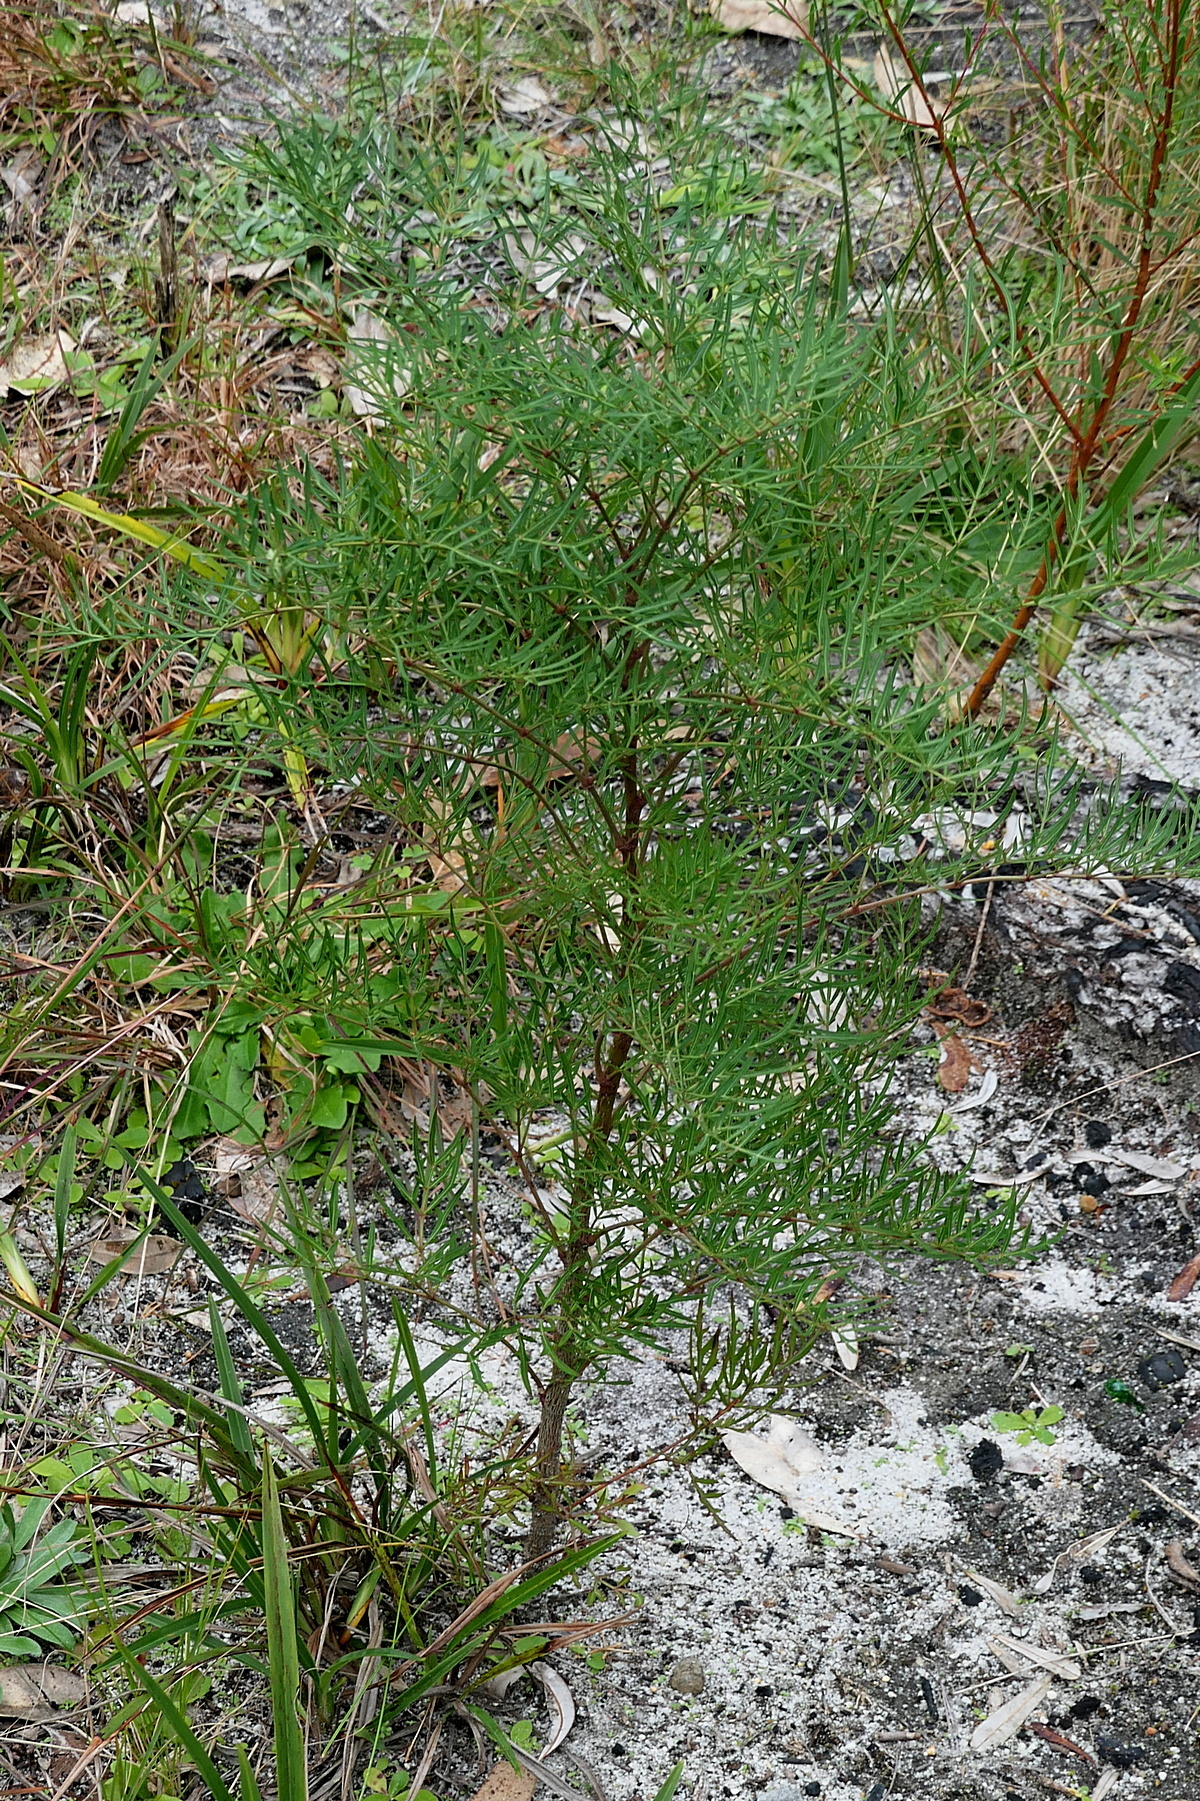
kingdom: Plantae
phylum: Tracheophyta
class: Magnoliopsida
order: Apiales
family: Araliaceae
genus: Polyscias
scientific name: Polyscias sambucifolia
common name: Elderberry-ash
